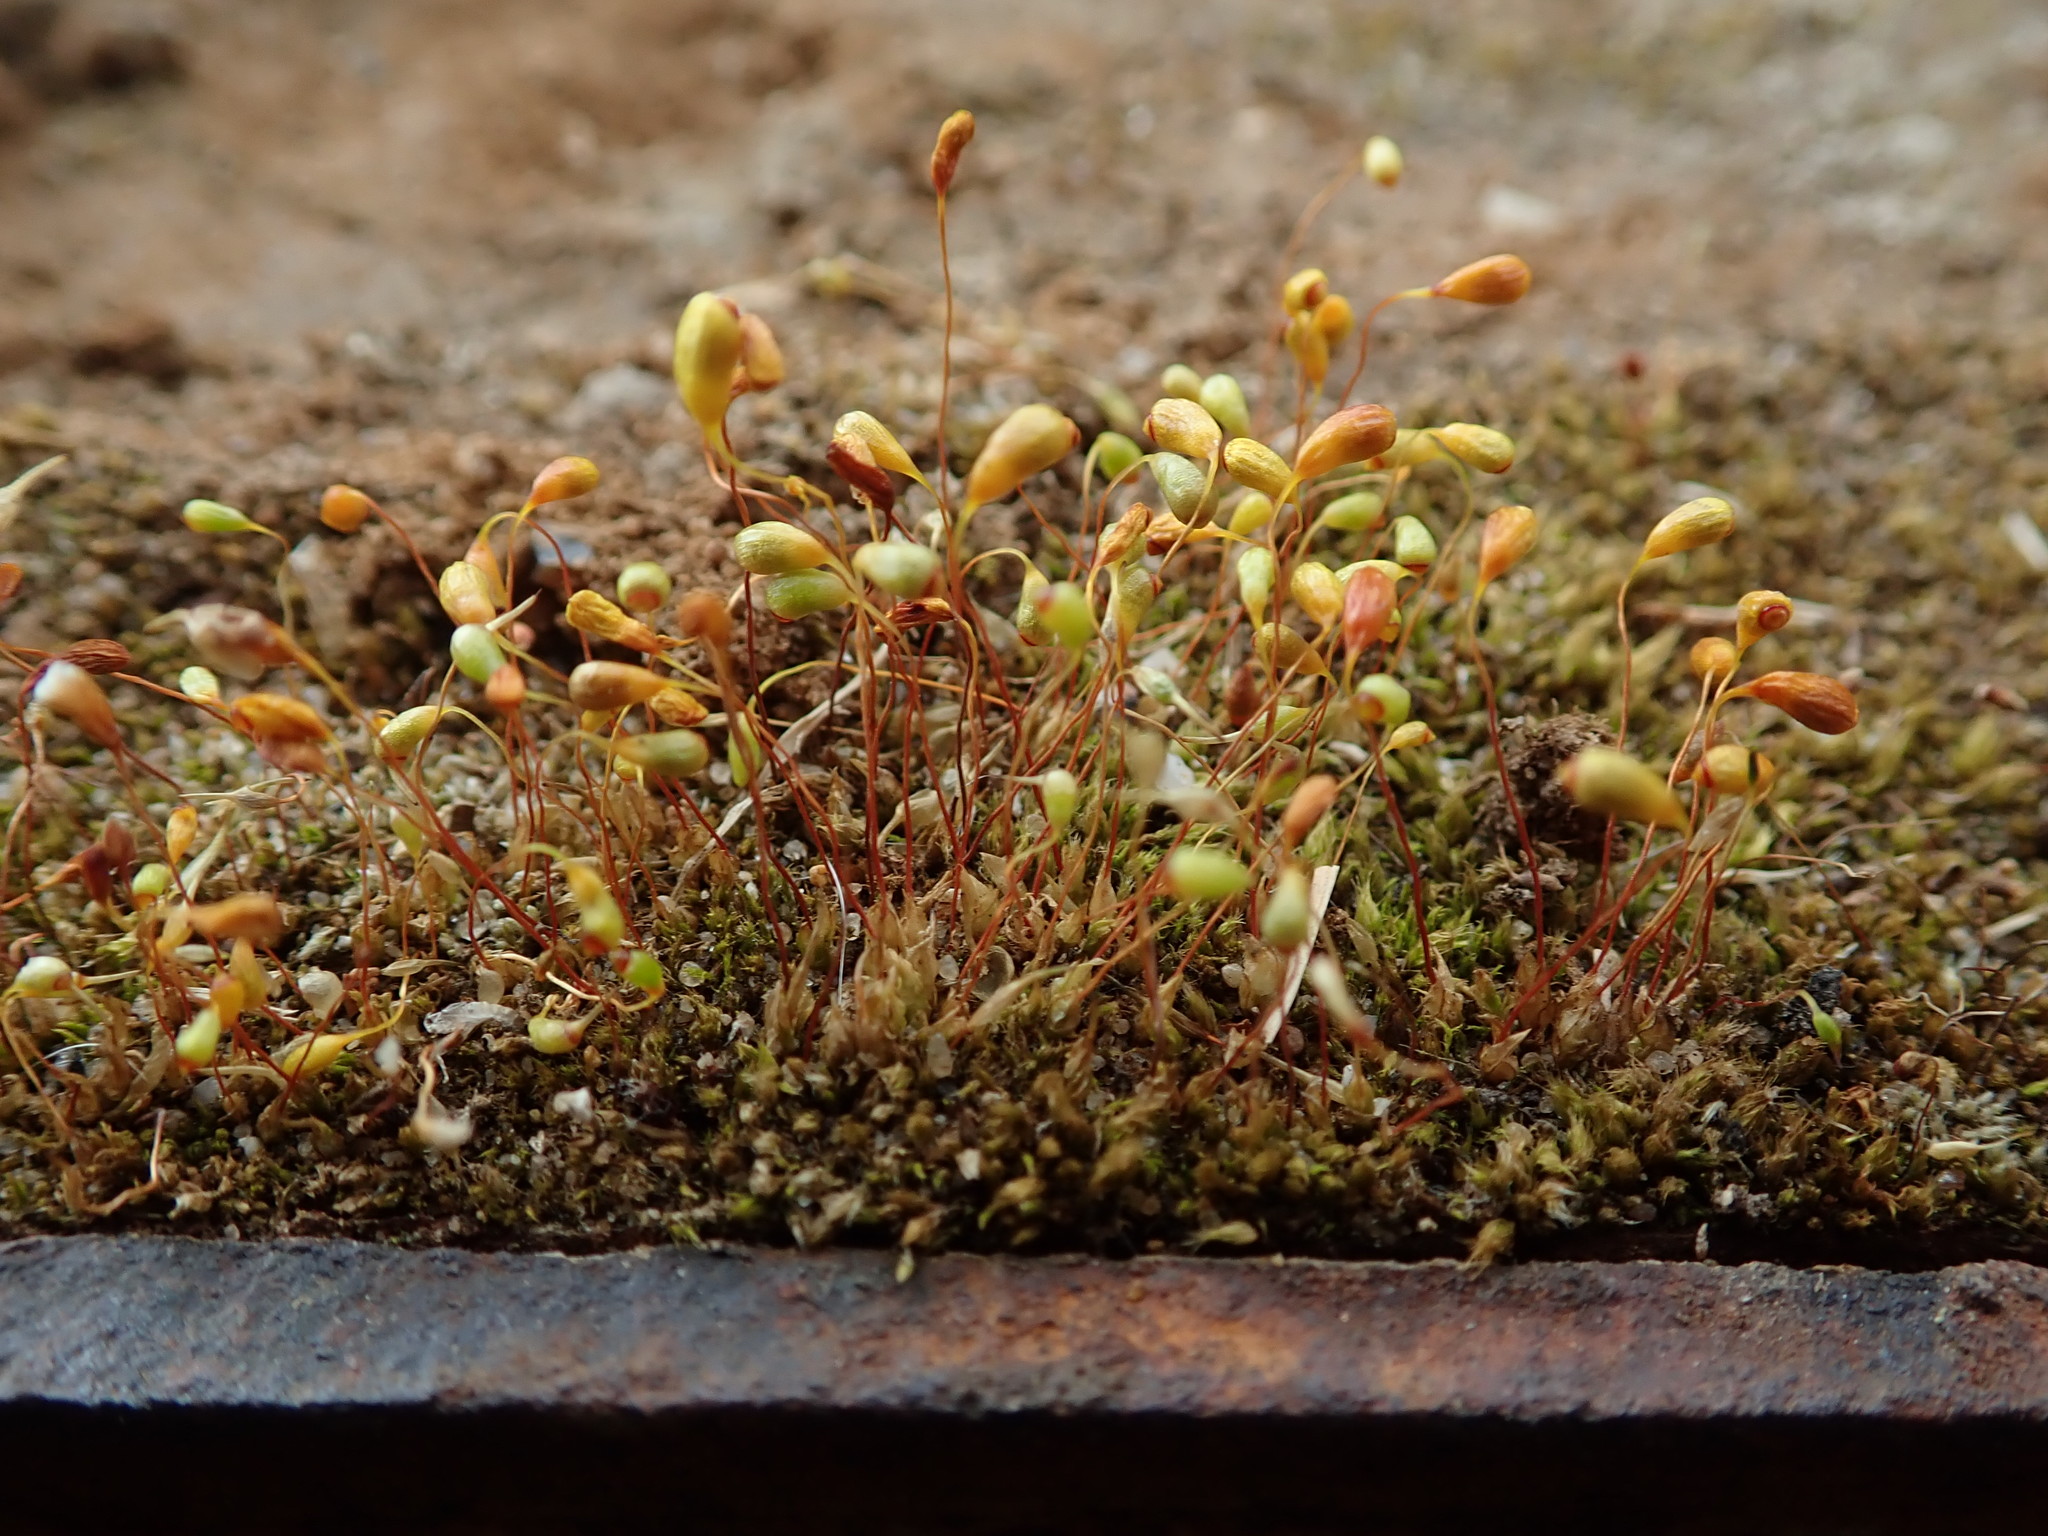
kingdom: Plantae
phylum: Bryophyta
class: Bryopsida
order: Funariales
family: Funariaceae
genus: Funaria
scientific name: Funaria hygrometrica
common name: Common cord moss
